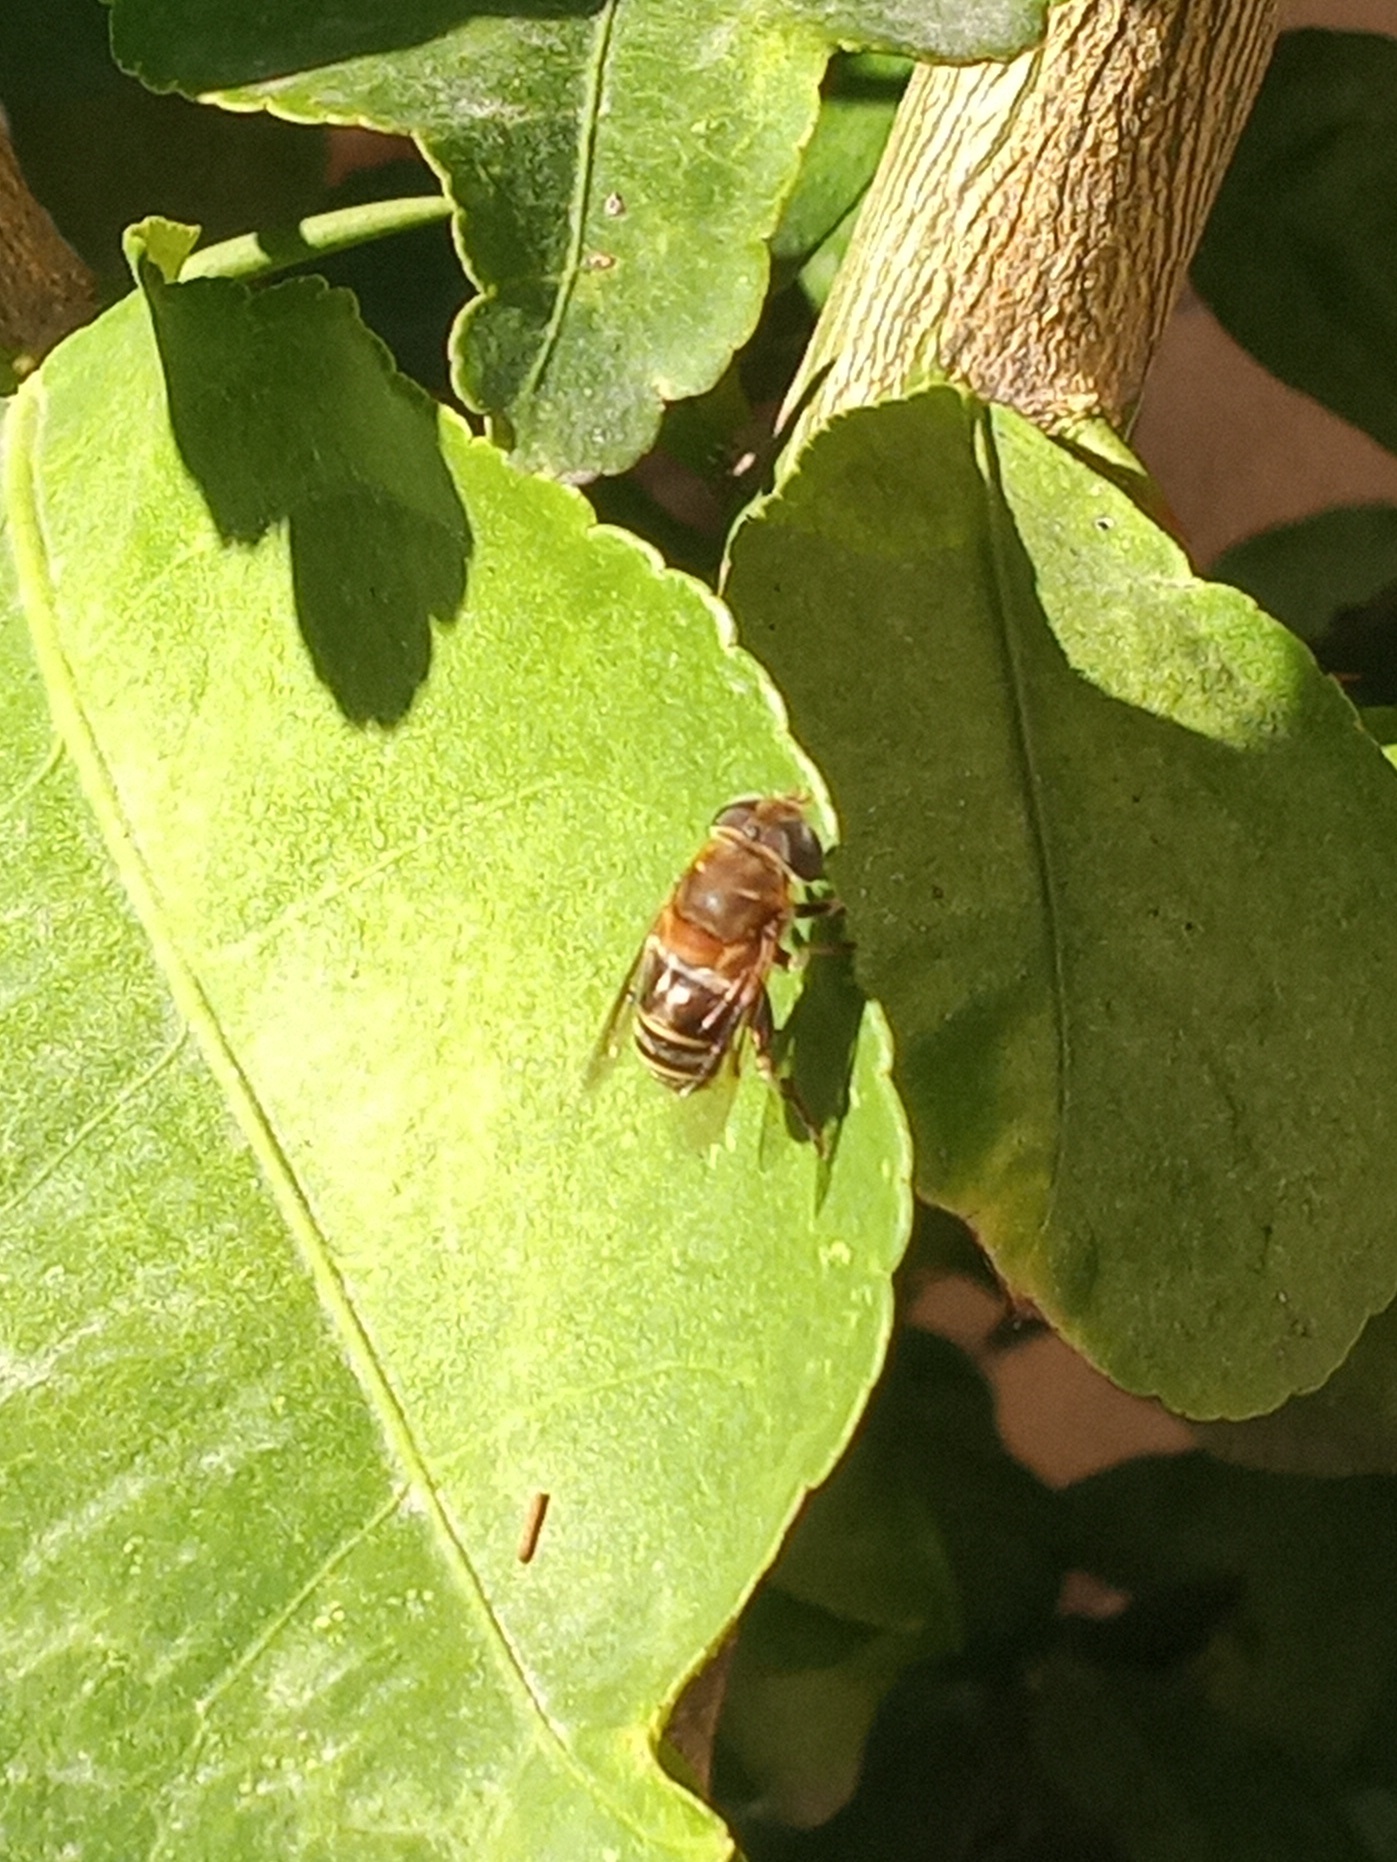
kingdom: Animalia
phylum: Arthropoda
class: Insecta
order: Diptera
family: Syrphidae
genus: Palpada
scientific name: Palpada mexicana
